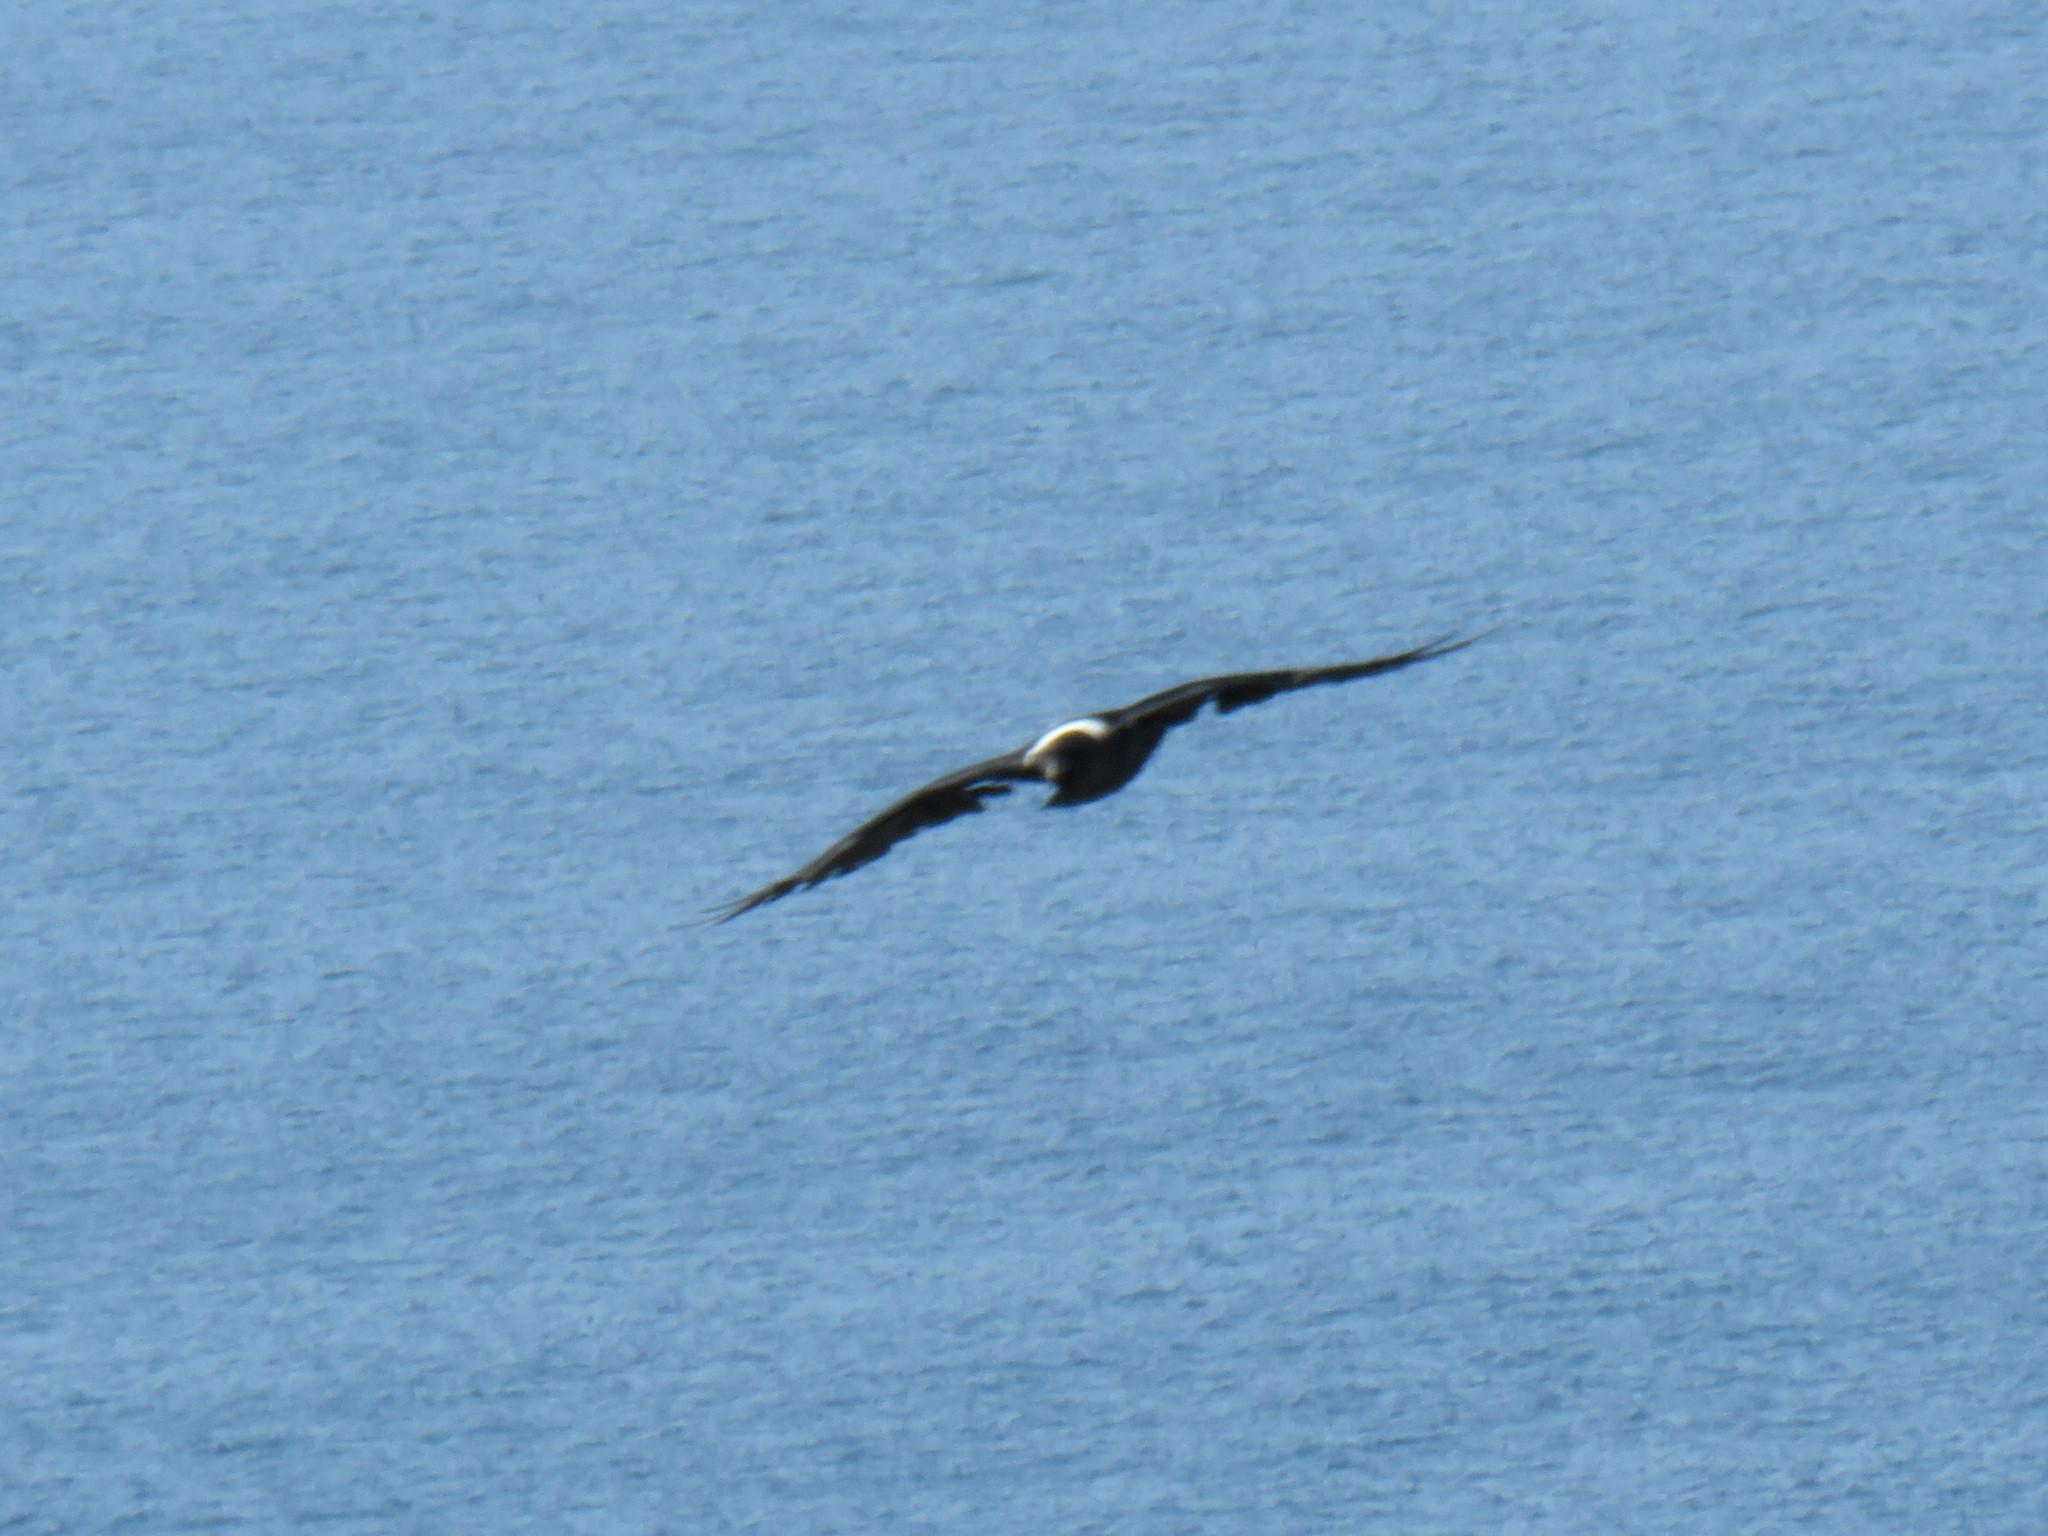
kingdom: Animalia
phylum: Chordata
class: Aves
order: Passeriformes
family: Corvidae
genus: Corvus
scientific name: Corvus albicollis
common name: White-necked raven
